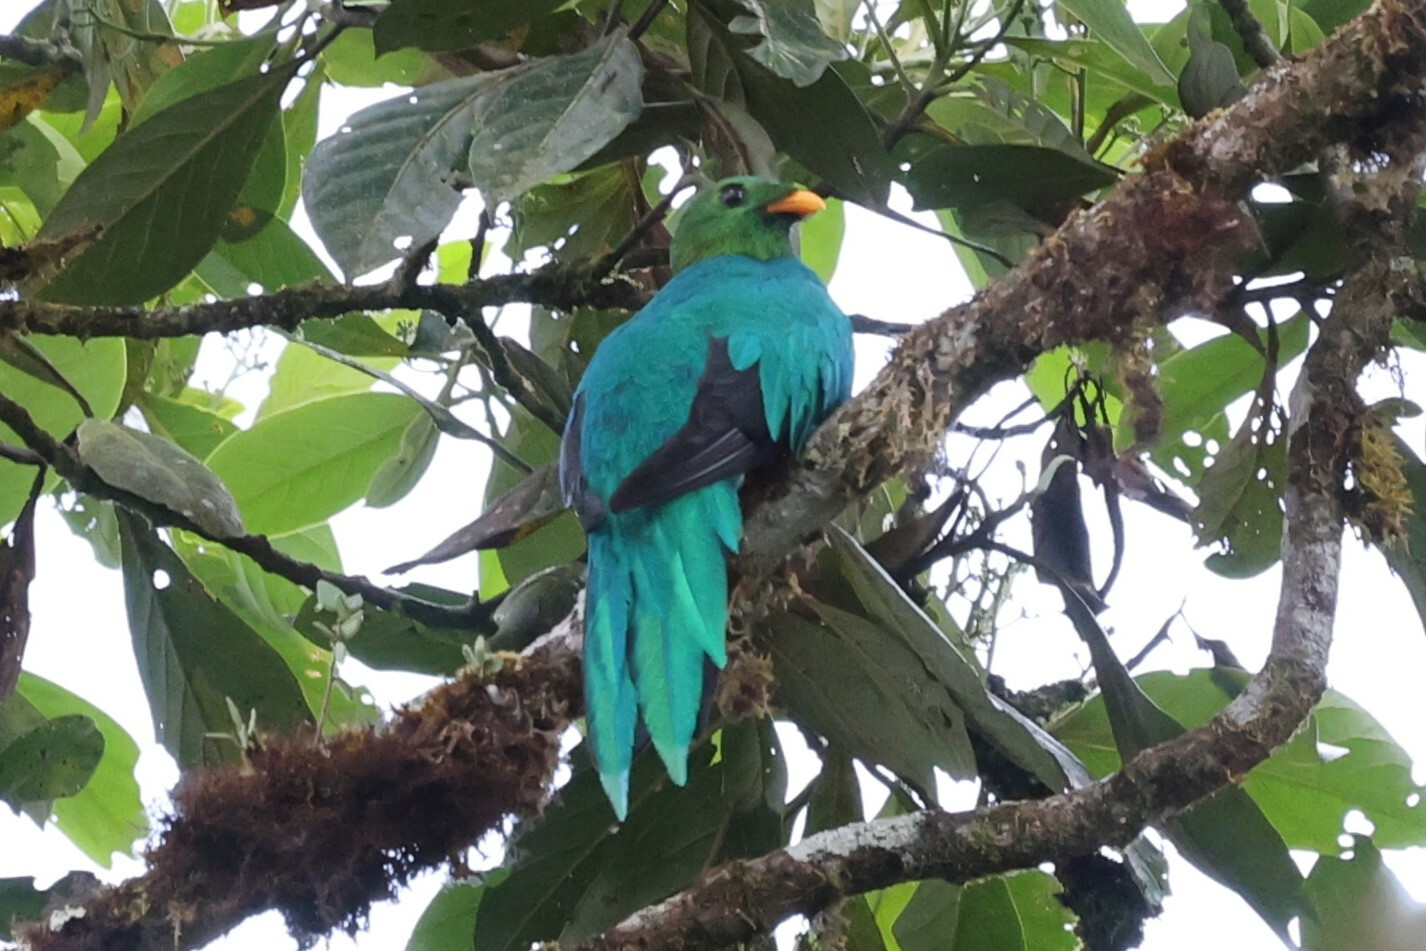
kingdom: Animalia
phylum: Chordata
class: Aves
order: Trogoniformes
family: Trogonidae
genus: Pharomachrus
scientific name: Pharomachrus auriceps
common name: Golden-headed quetzal
